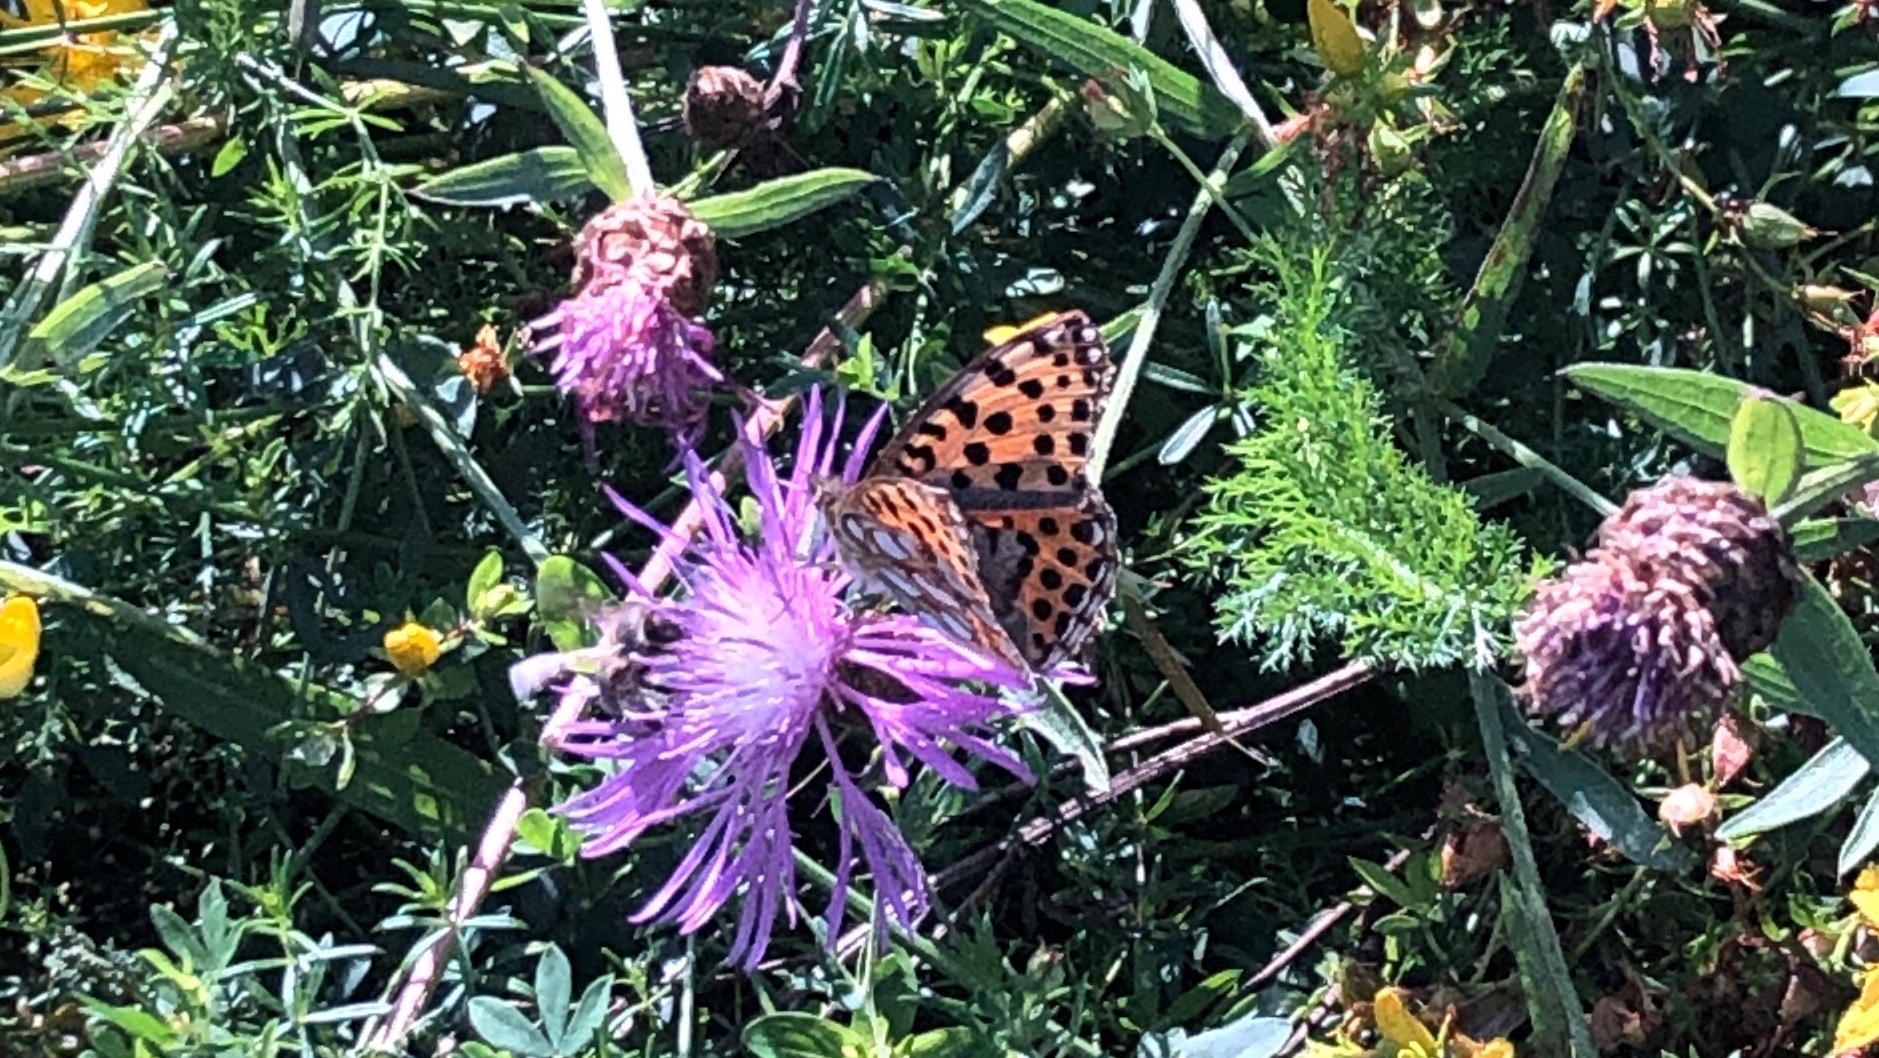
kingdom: Animalia
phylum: Arthropoda
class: Insecta
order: Lepidoptera
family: Nymphalidae
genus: Issoria
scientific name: Issoria lathonia
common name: Queen of spain fritillary
